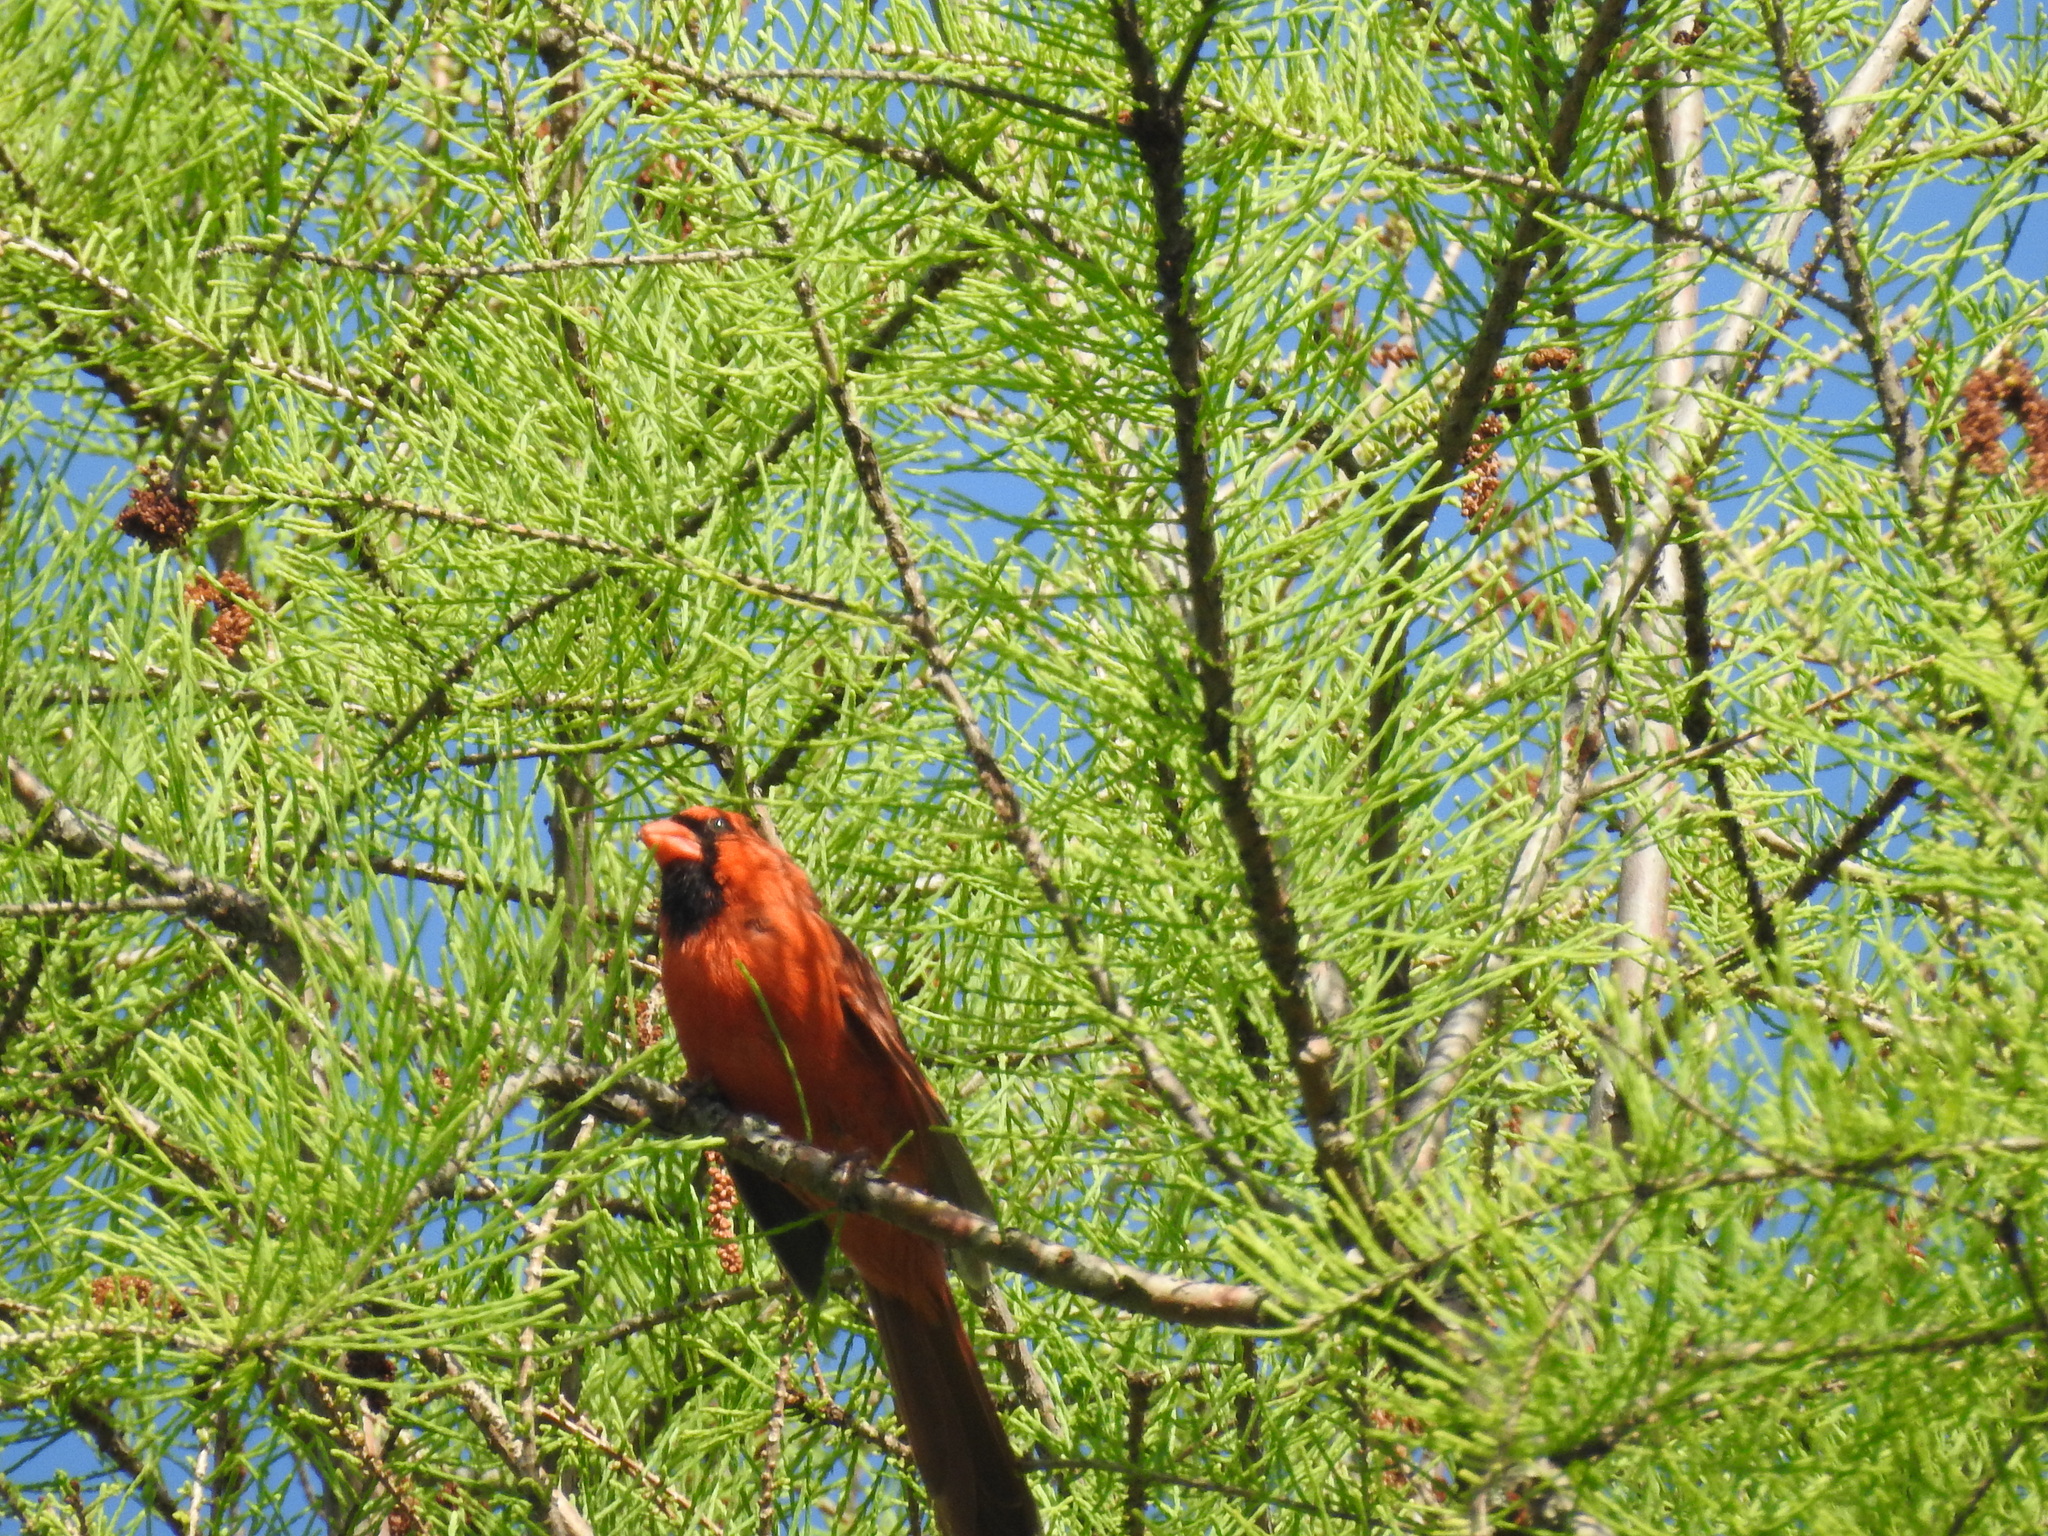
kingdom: Animalia
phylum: Chordata
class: Aves
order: Passeriformes
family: Cardinalidae
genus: Cardinalis
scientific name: Cardinalis cardinalis
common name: Northern cardinal
